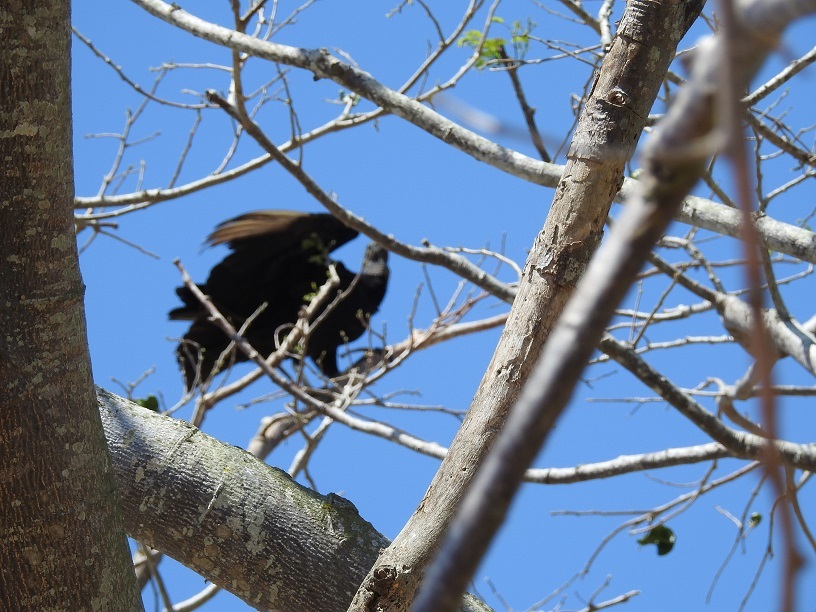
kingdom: Animalia
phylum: Chordata
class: Aves
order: Accipitriformes
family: Cathartidae
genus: Coragyps
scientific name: Coragyps atratus
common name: Black vulture
